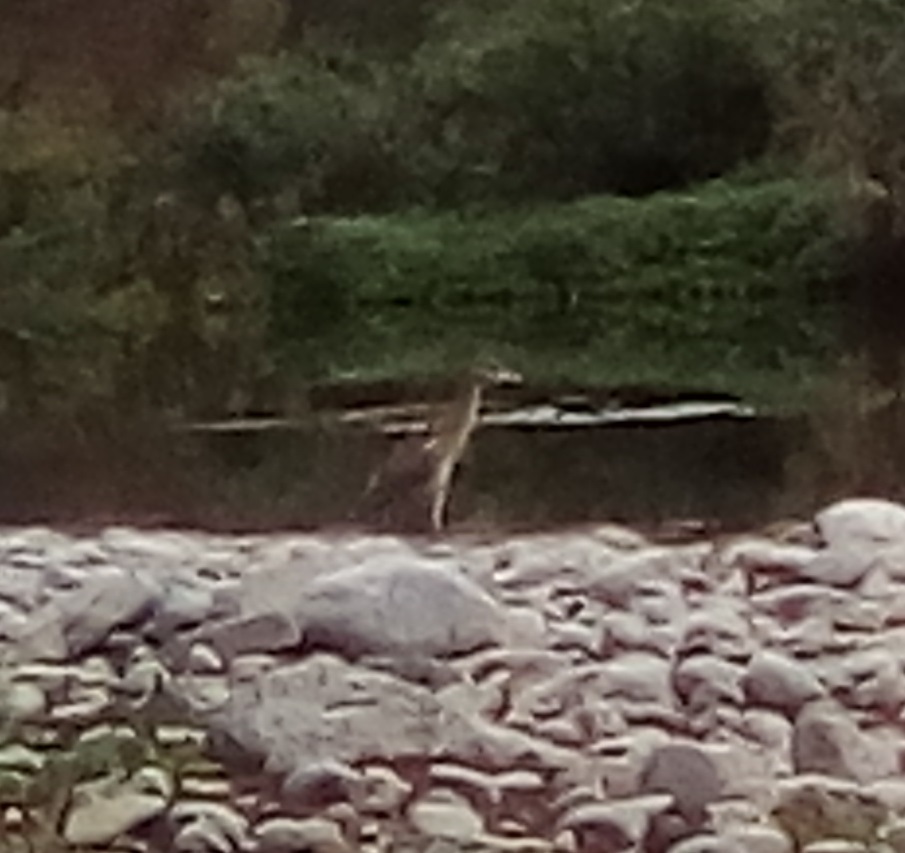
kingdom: Animalia
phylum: Chordata
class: Aves
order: Pelecaniformes
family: Ardeidae
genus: Nyctanassa
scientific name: Nyctanassa violacea
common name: Yellow-crowned night heron
